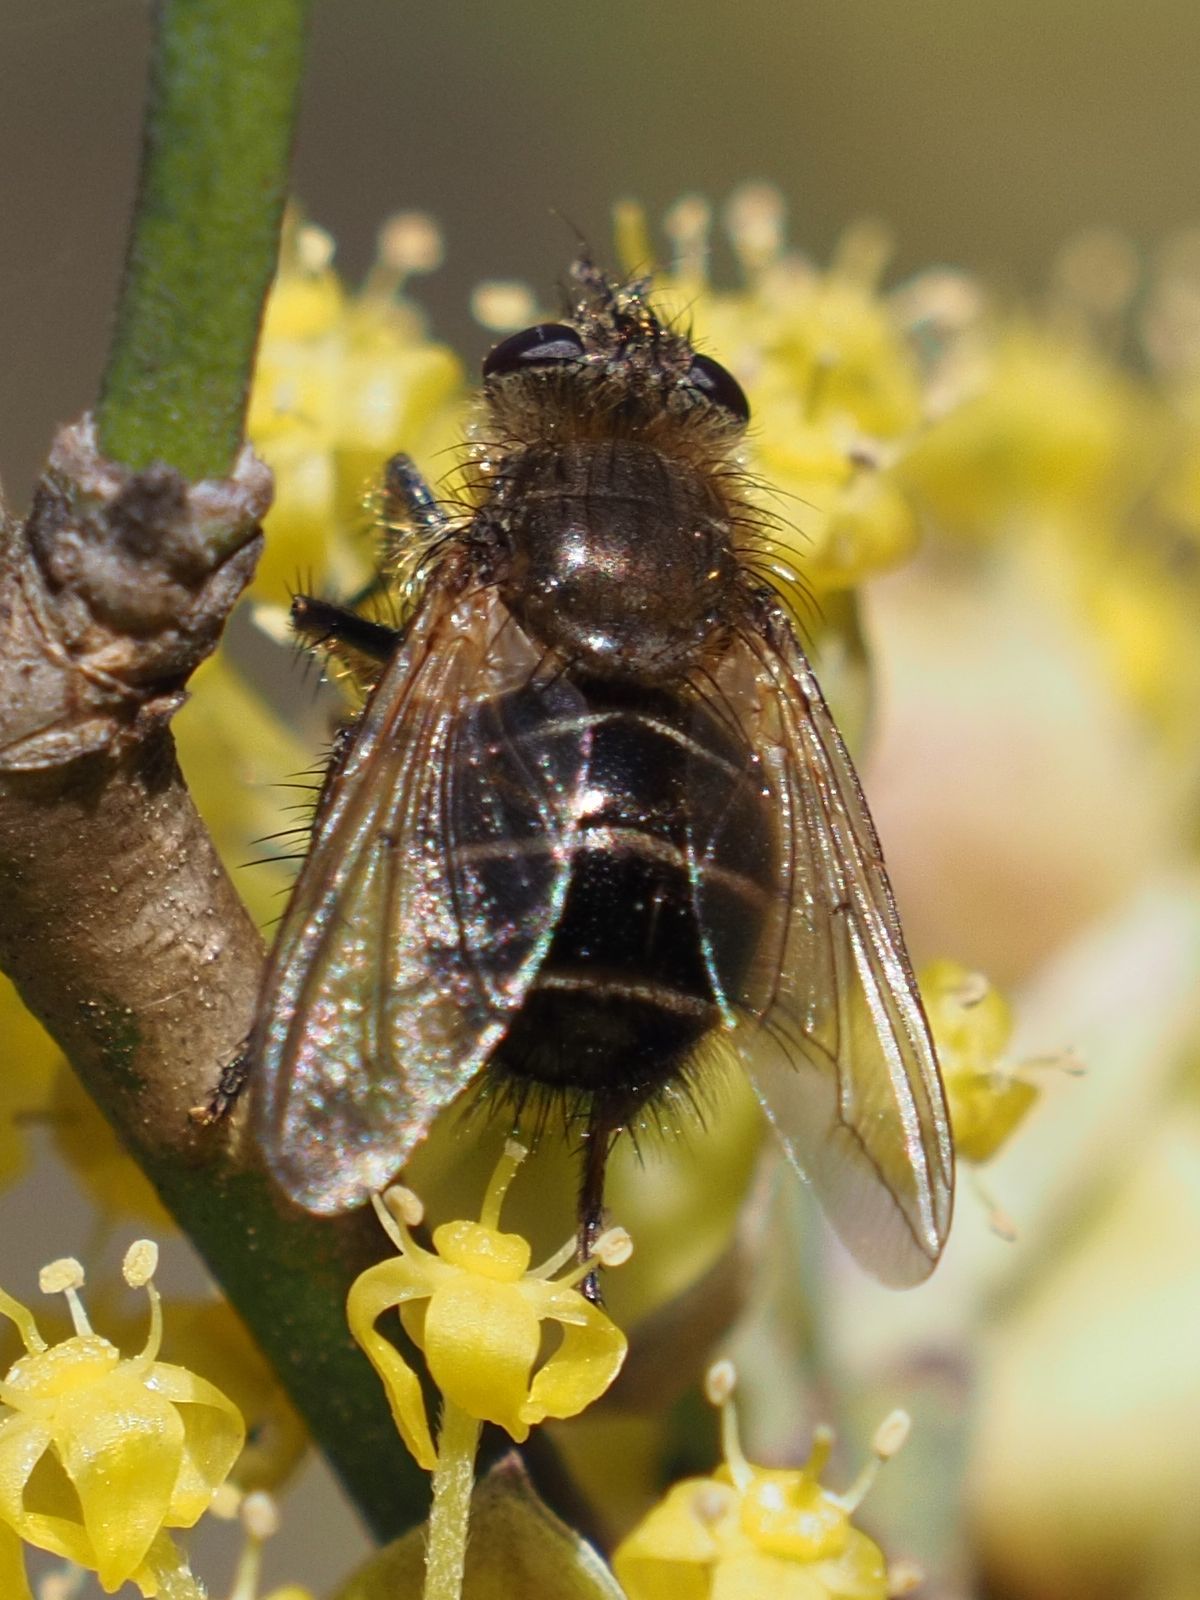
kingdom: Animalia
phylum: Arthropoda
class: Insecta
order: Diptera
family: Tachinidae
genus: Tachina
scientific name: Tachina ursina
